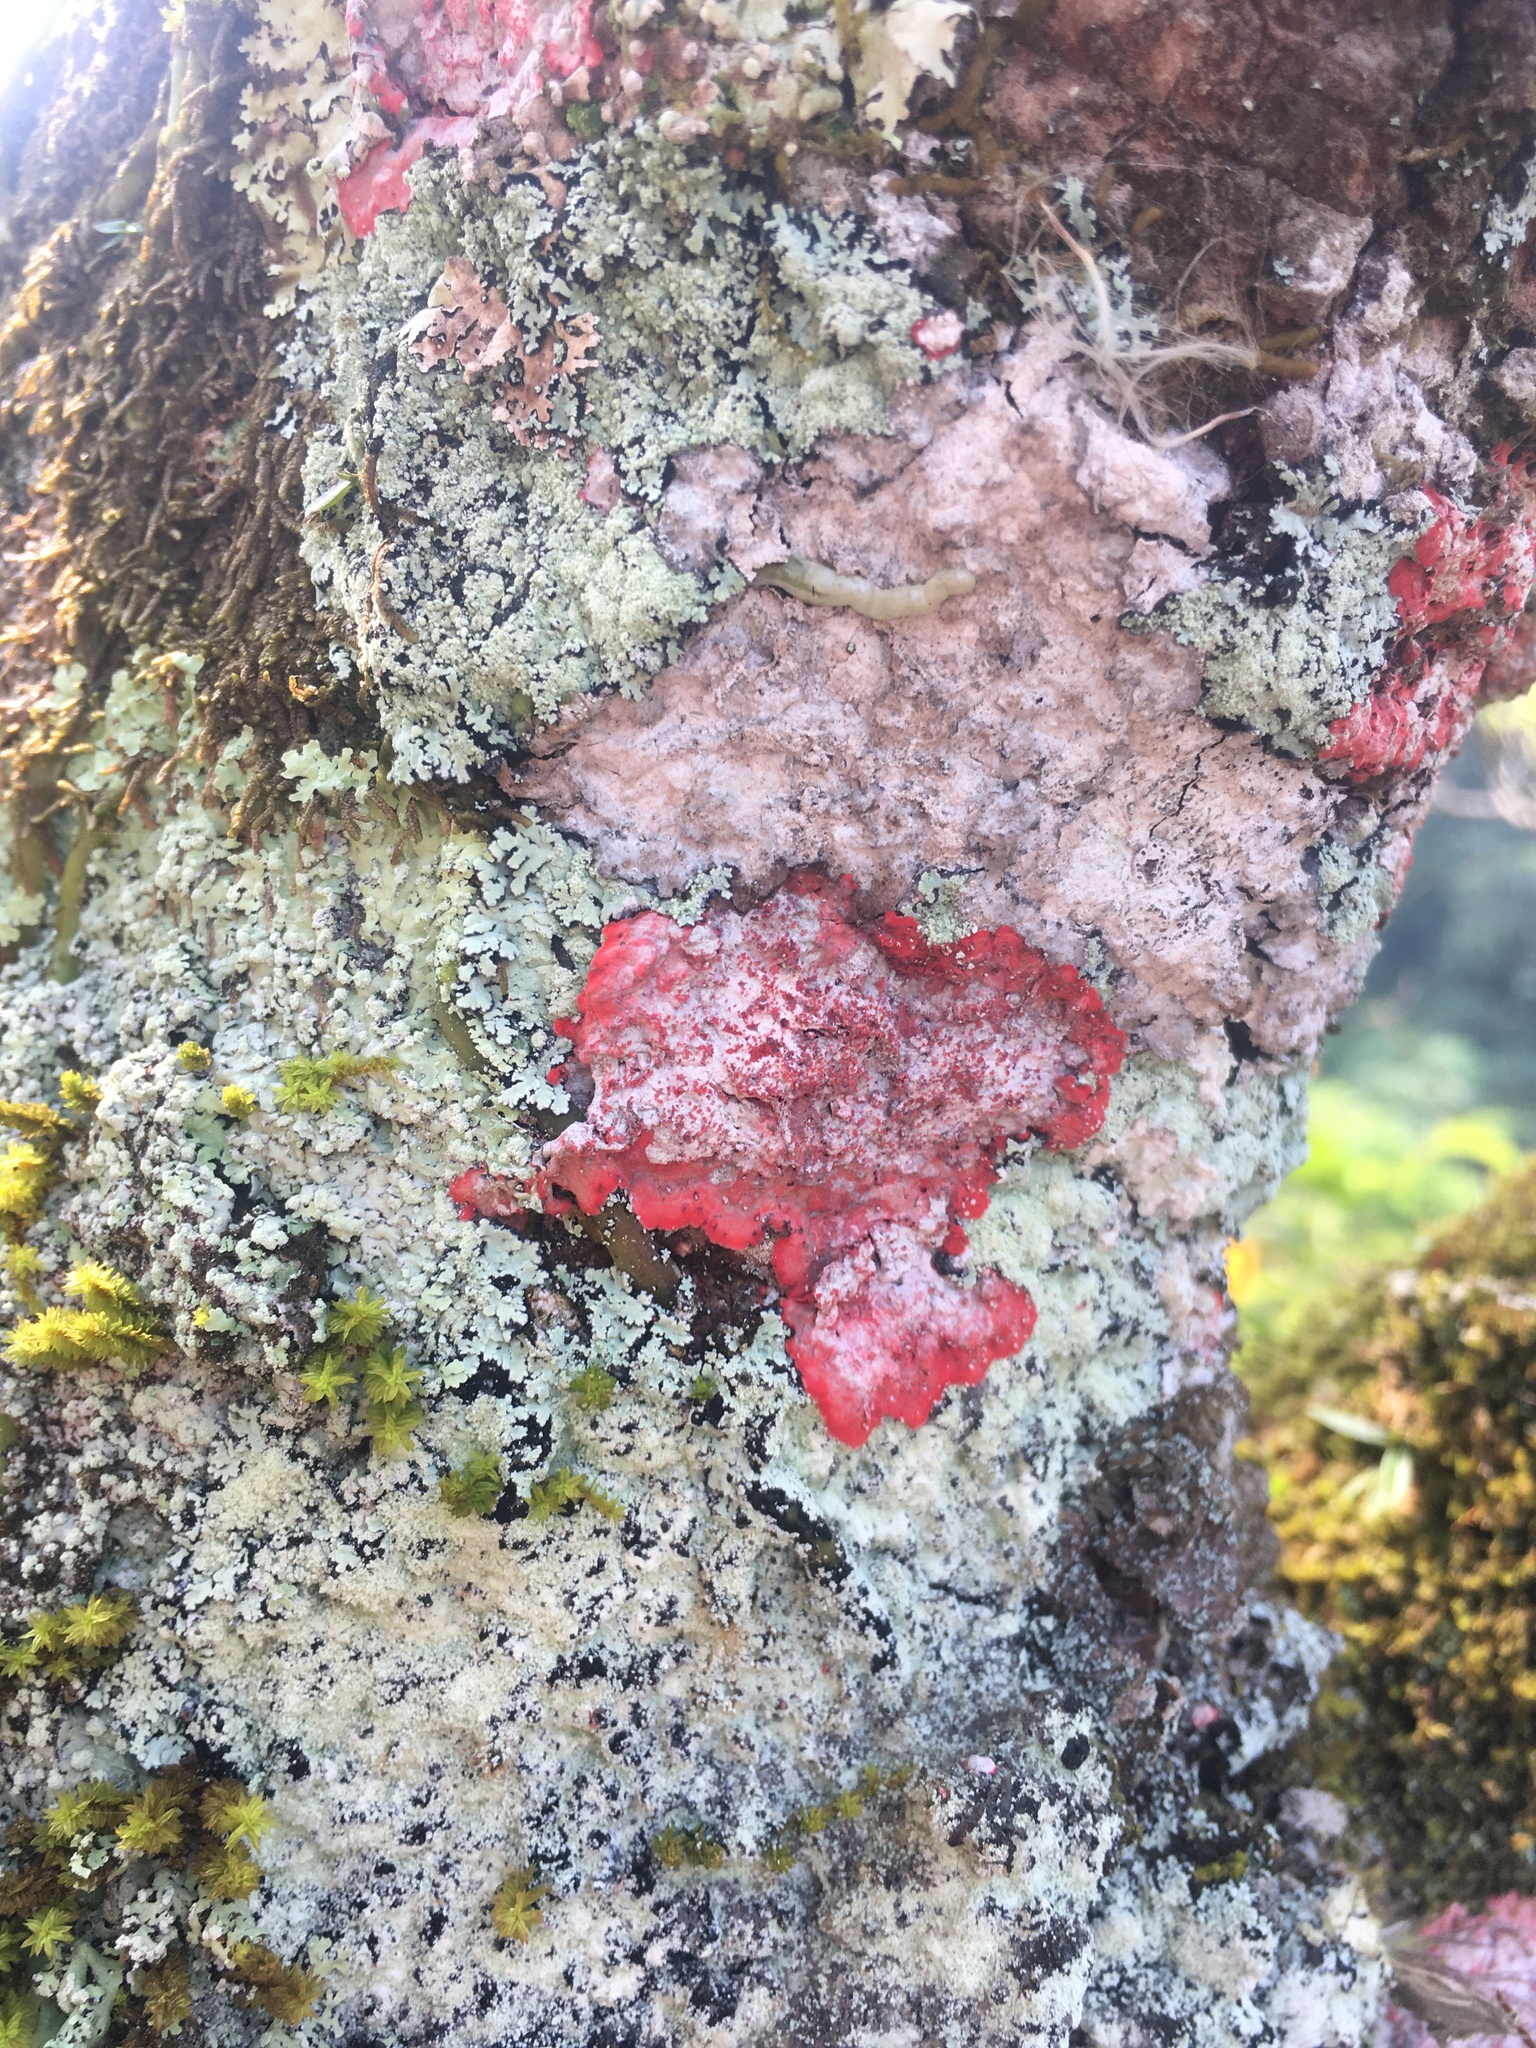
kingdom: Fungi
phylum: Ascomycota
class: Arthoniomycetes
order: Arthoniales
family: Arthoniaceae
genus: Herpothallon
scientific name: Herpothallon rubrocinctum
